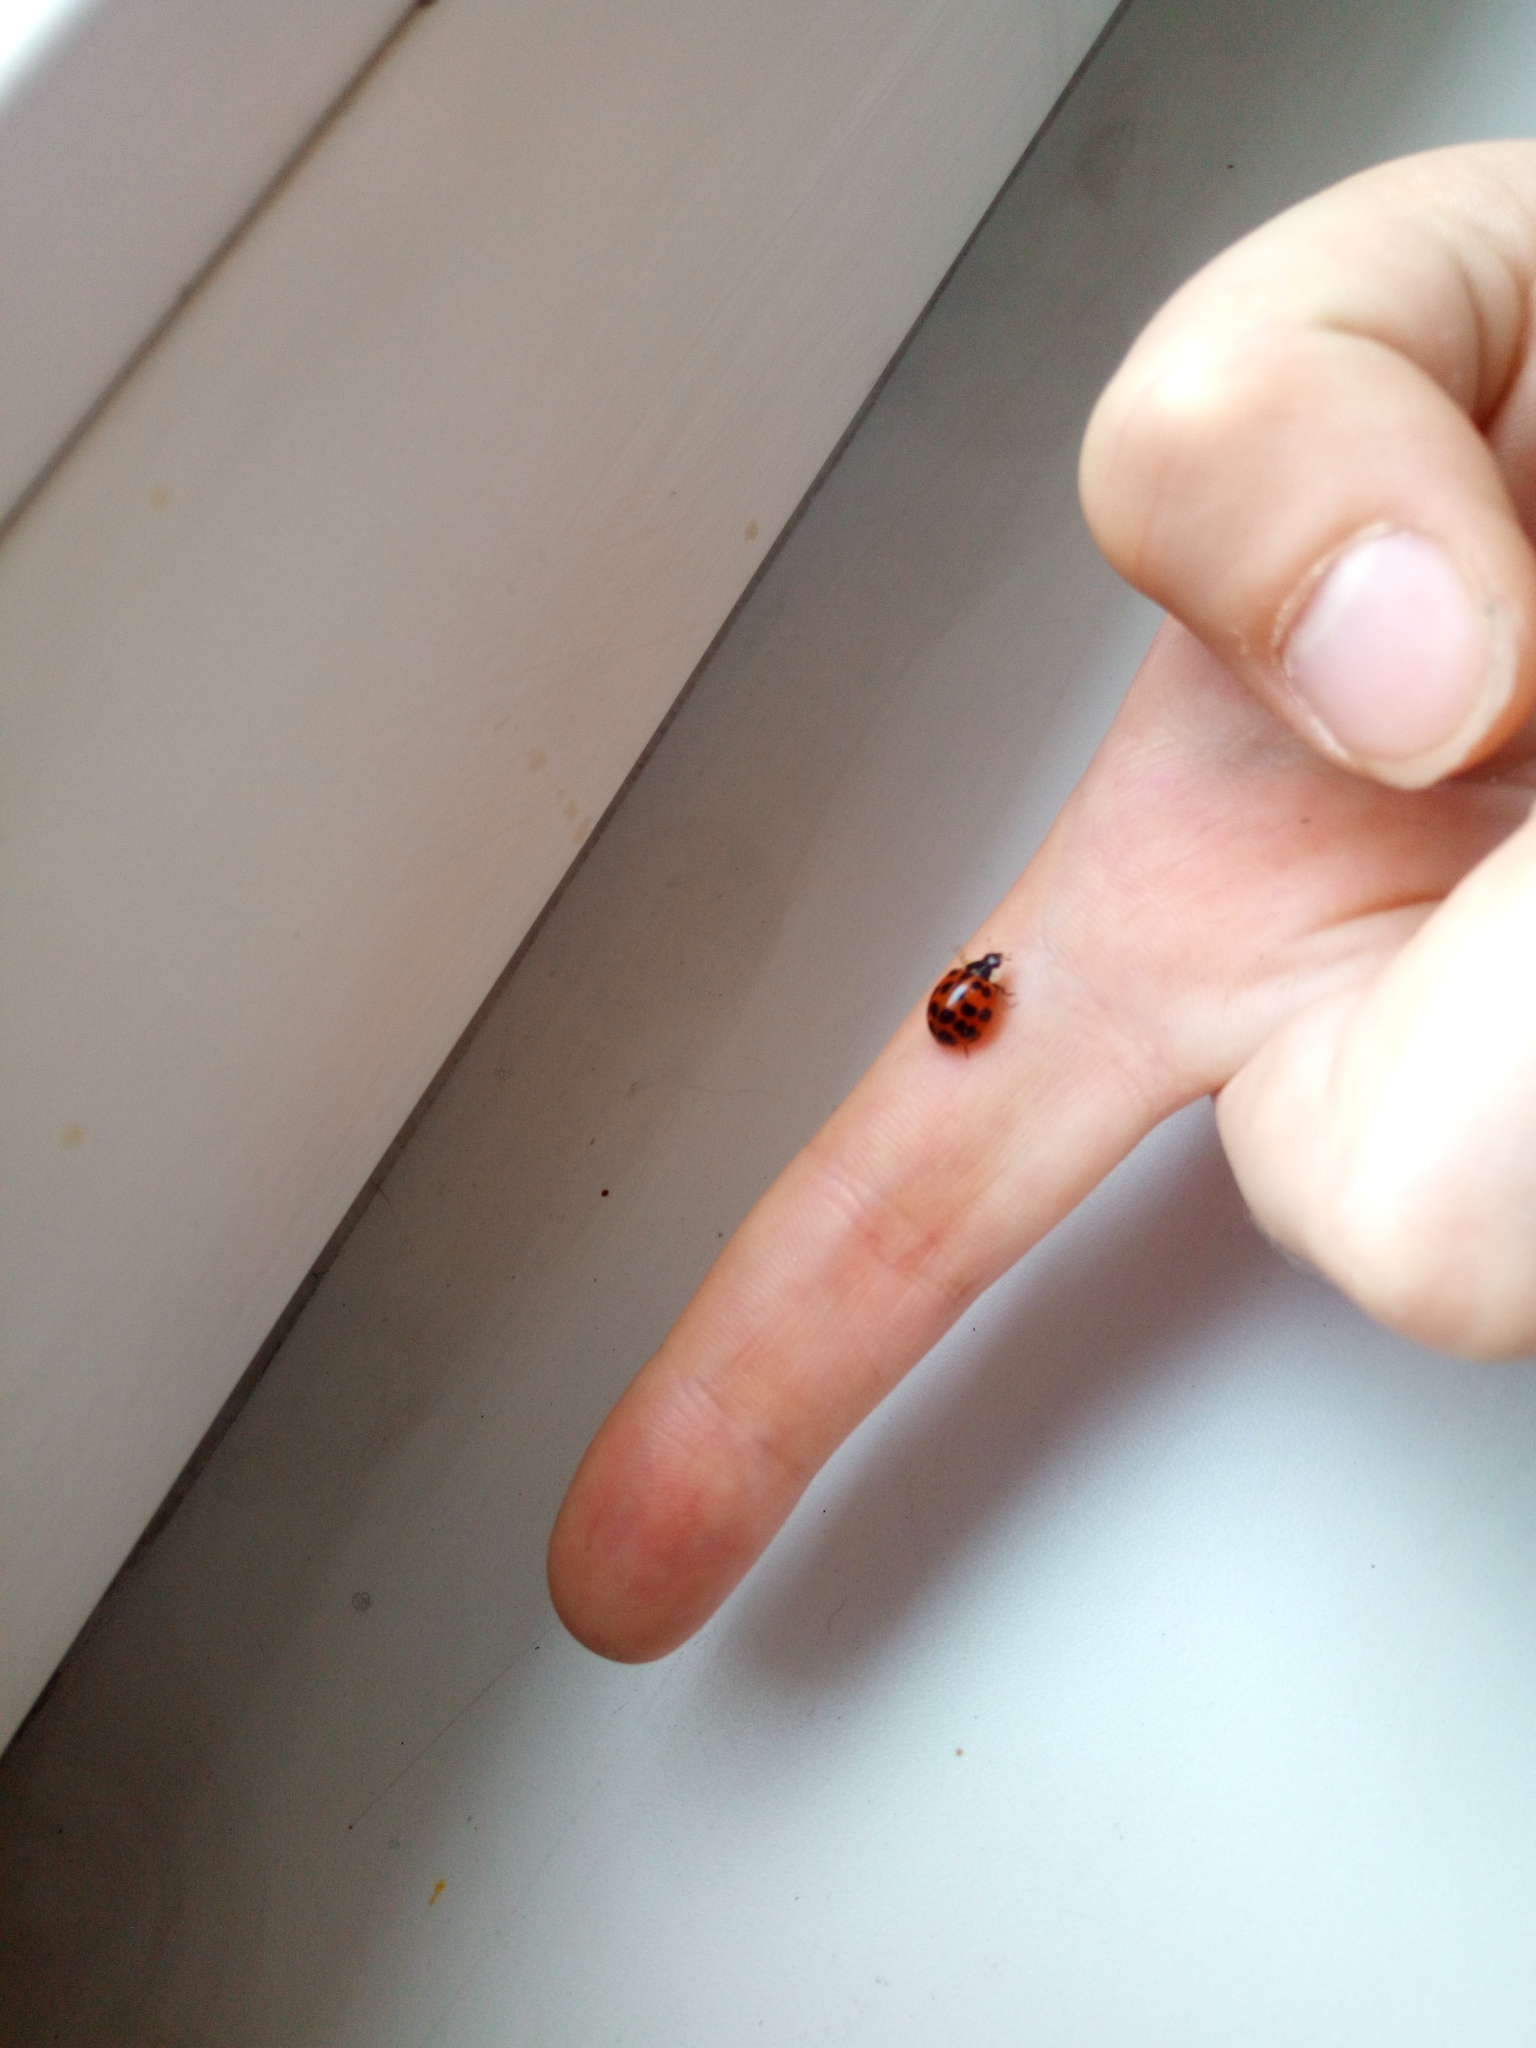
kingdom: Animalia
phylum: Arthropoda
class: Insecta
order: Coleoptera
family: Coccinellidae
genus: Harmonia
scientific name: Harmonia axyridis
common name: Harlequin ladybird
